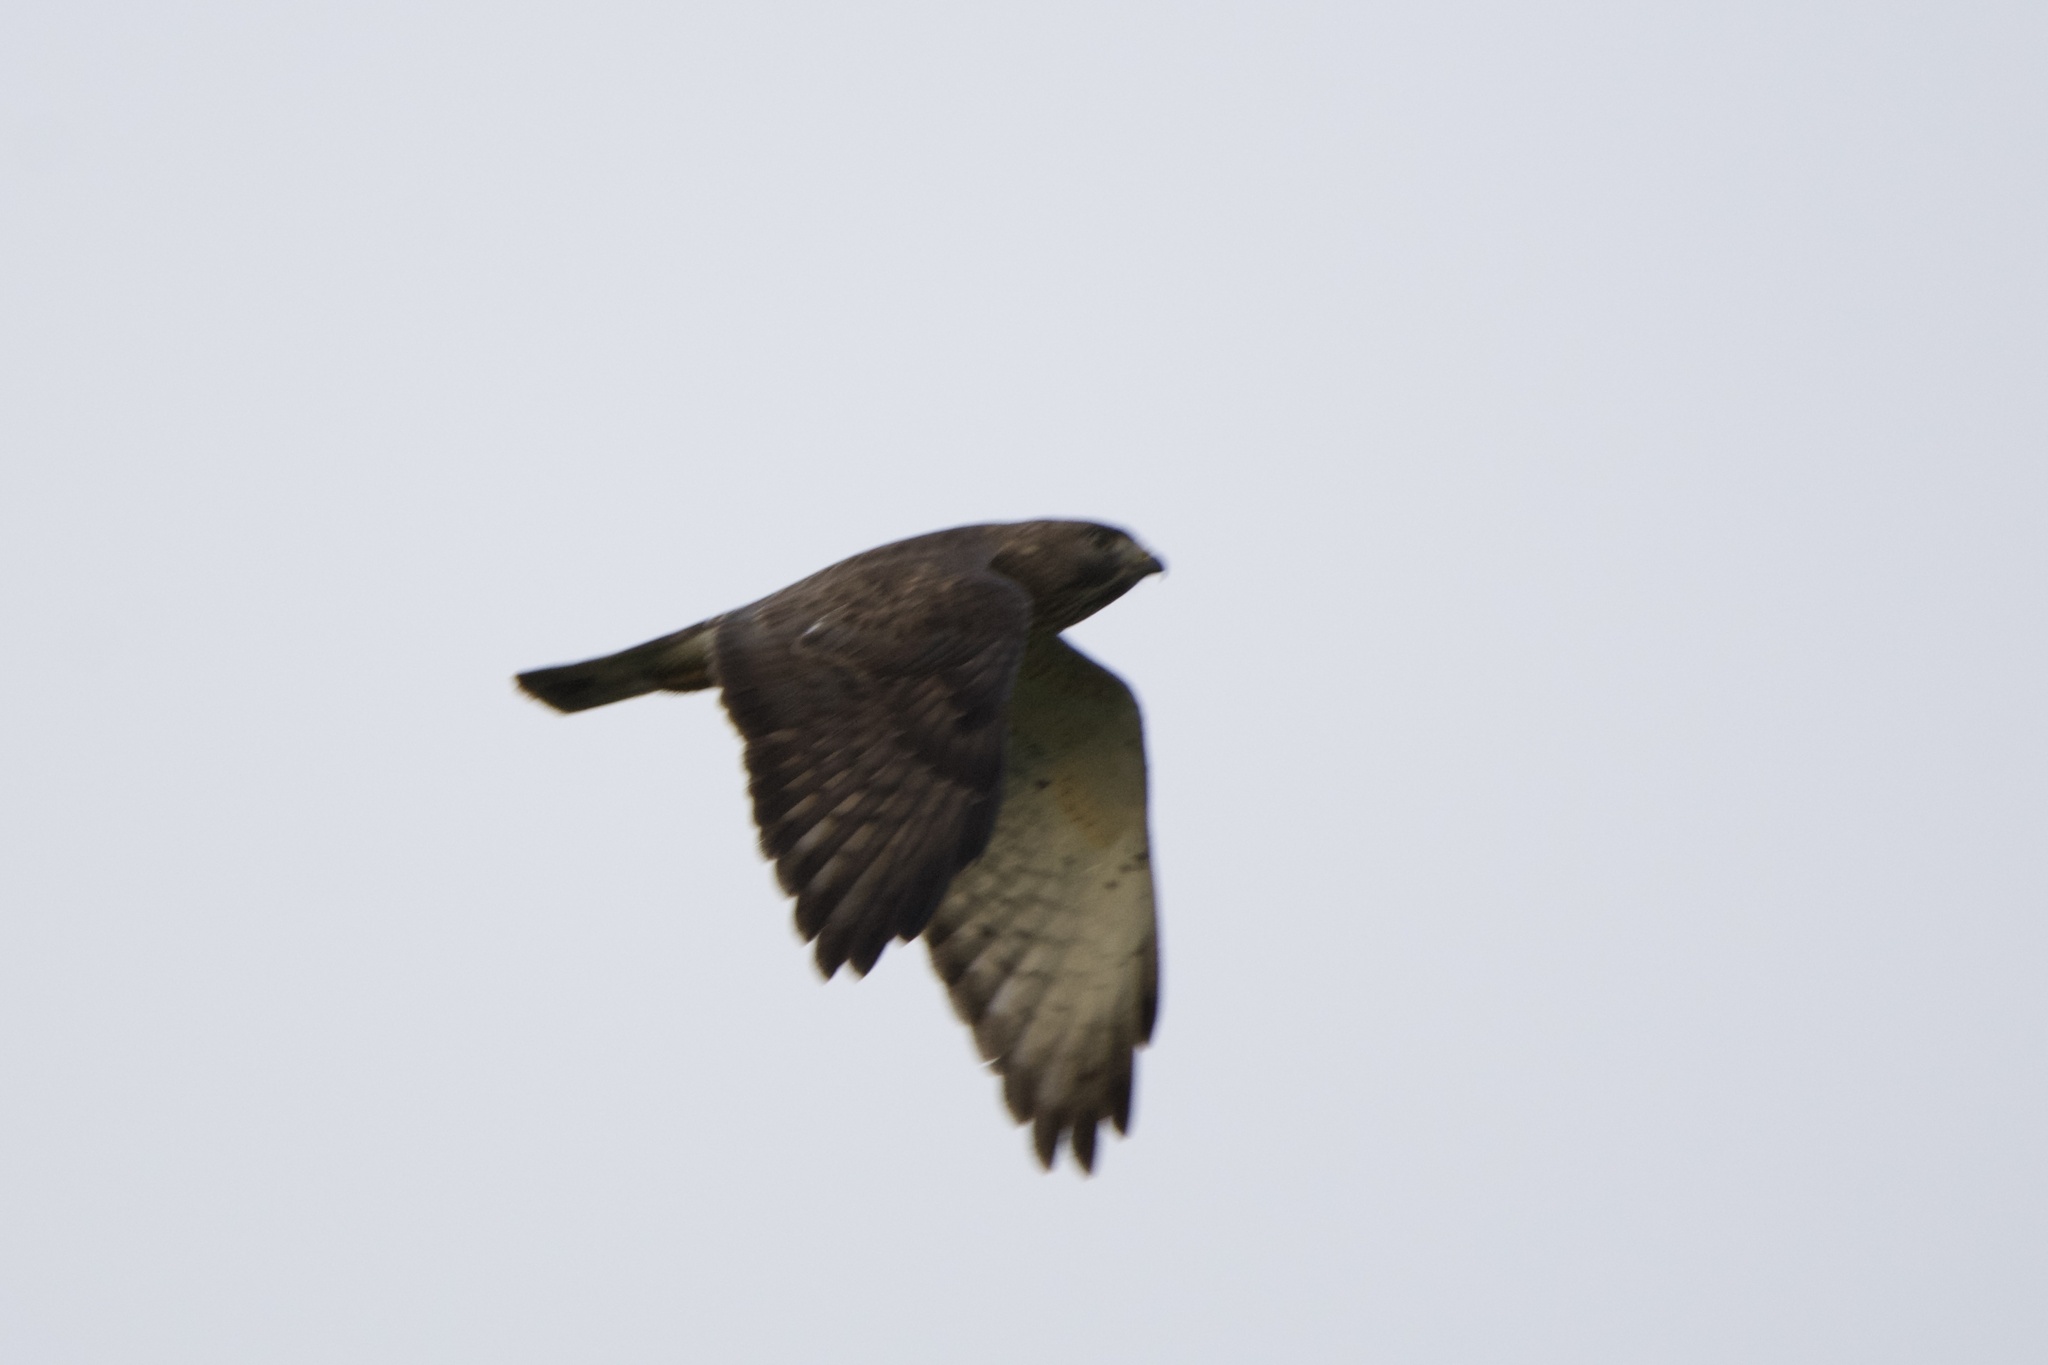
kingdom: Animalia
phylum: Chordata
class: Aves
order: Accipitriformes
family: Accipitridae
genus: Buteo
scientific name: Buteo platypterus
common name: Broad-winged hawk
